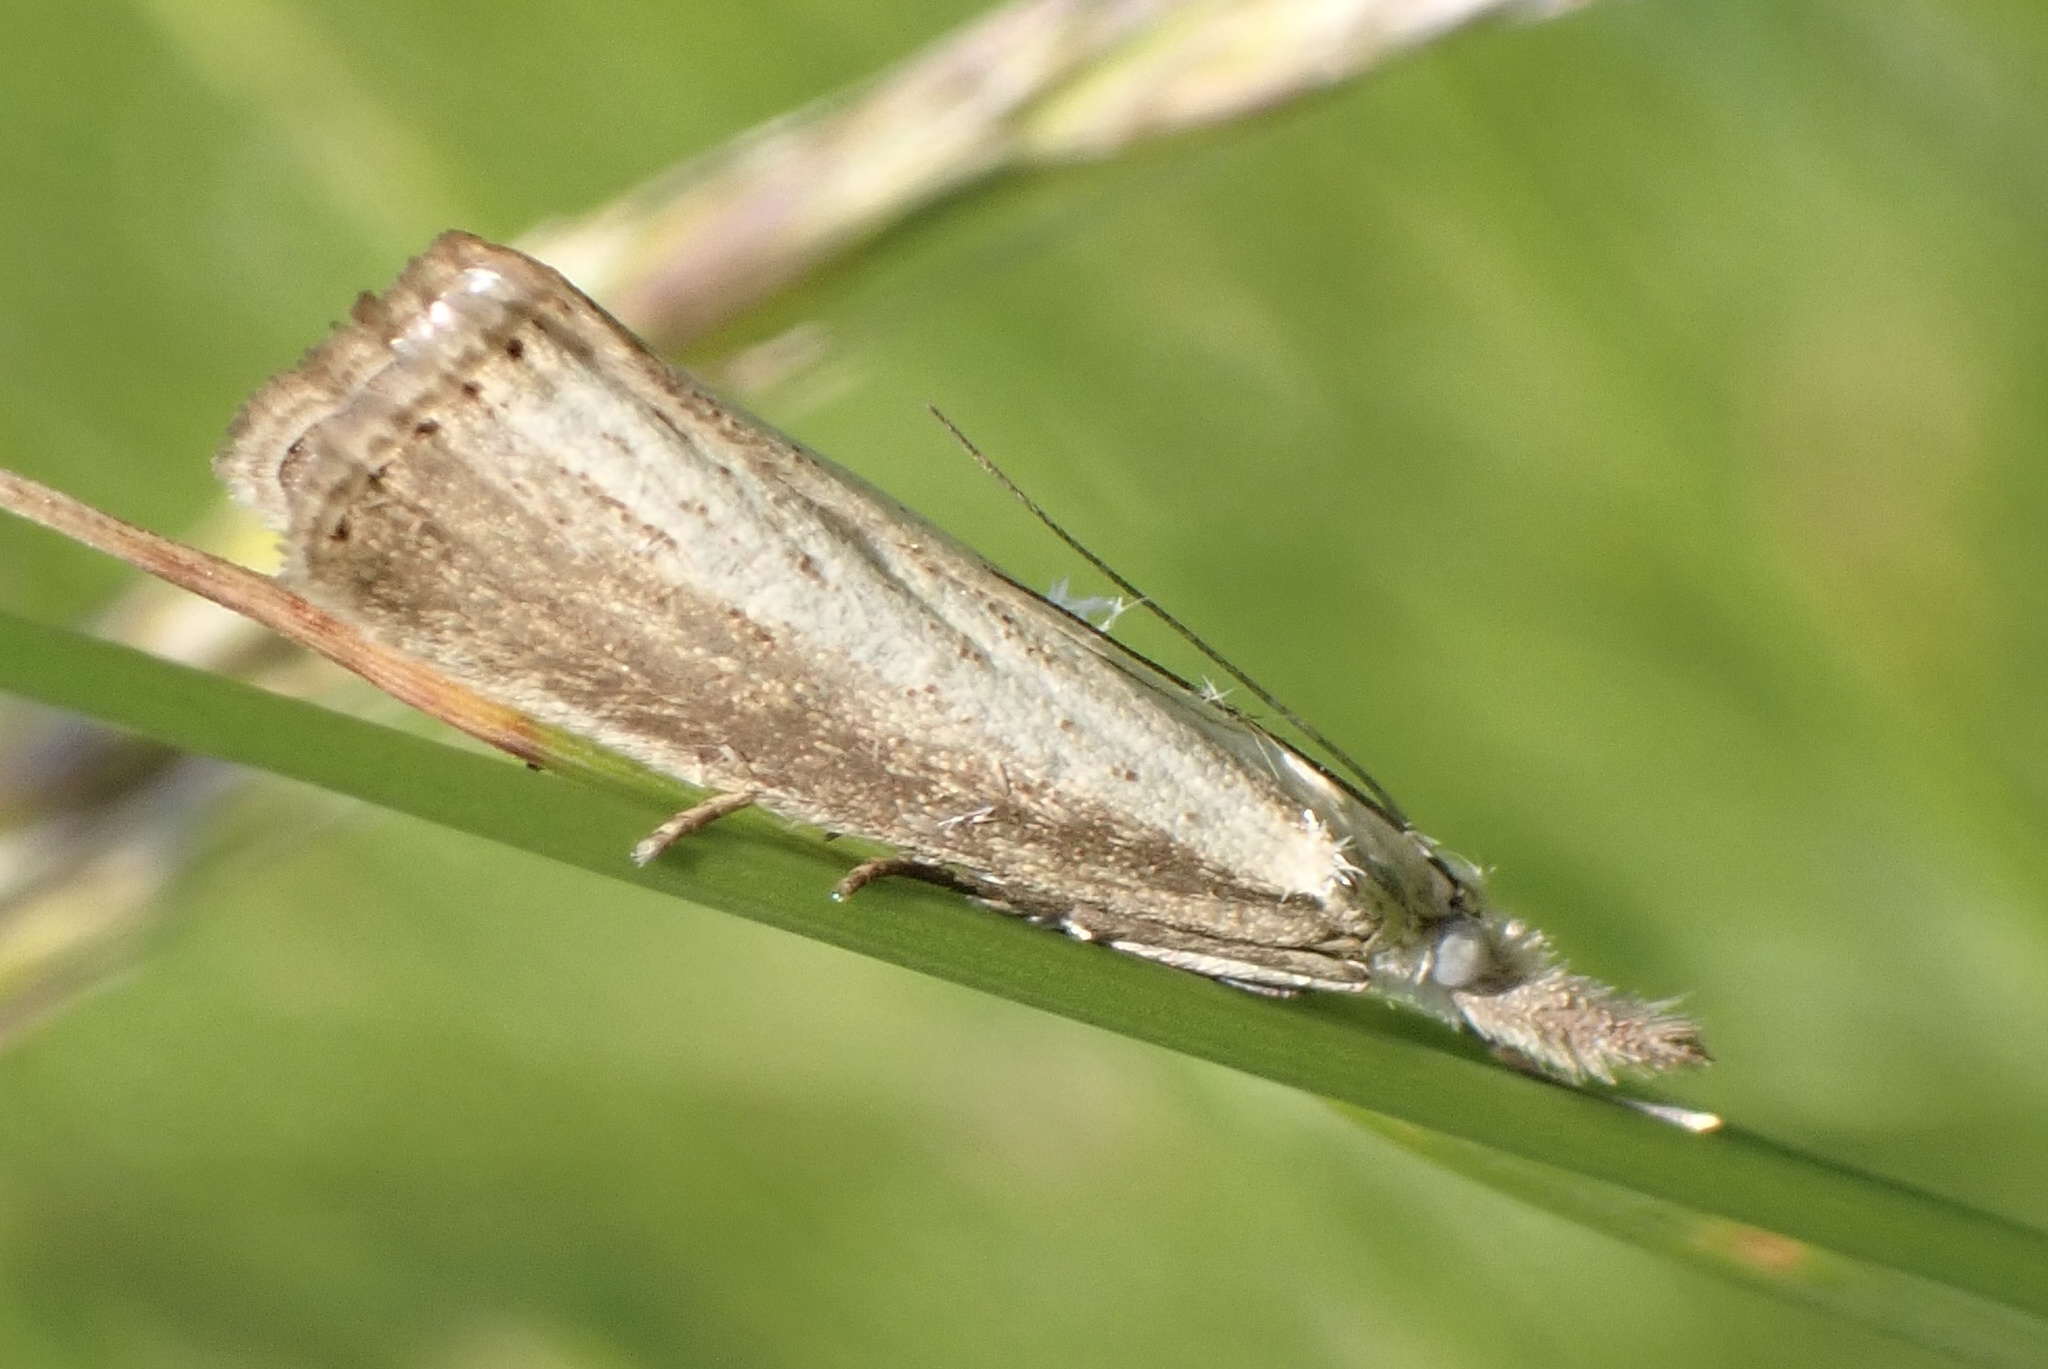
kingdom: Animalia
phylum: Arthropoda
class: Insecta
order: Lepidoptera
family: Crambidae
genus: Agriphila
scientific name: Agriphila straminella
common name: Straw grass-veneer
